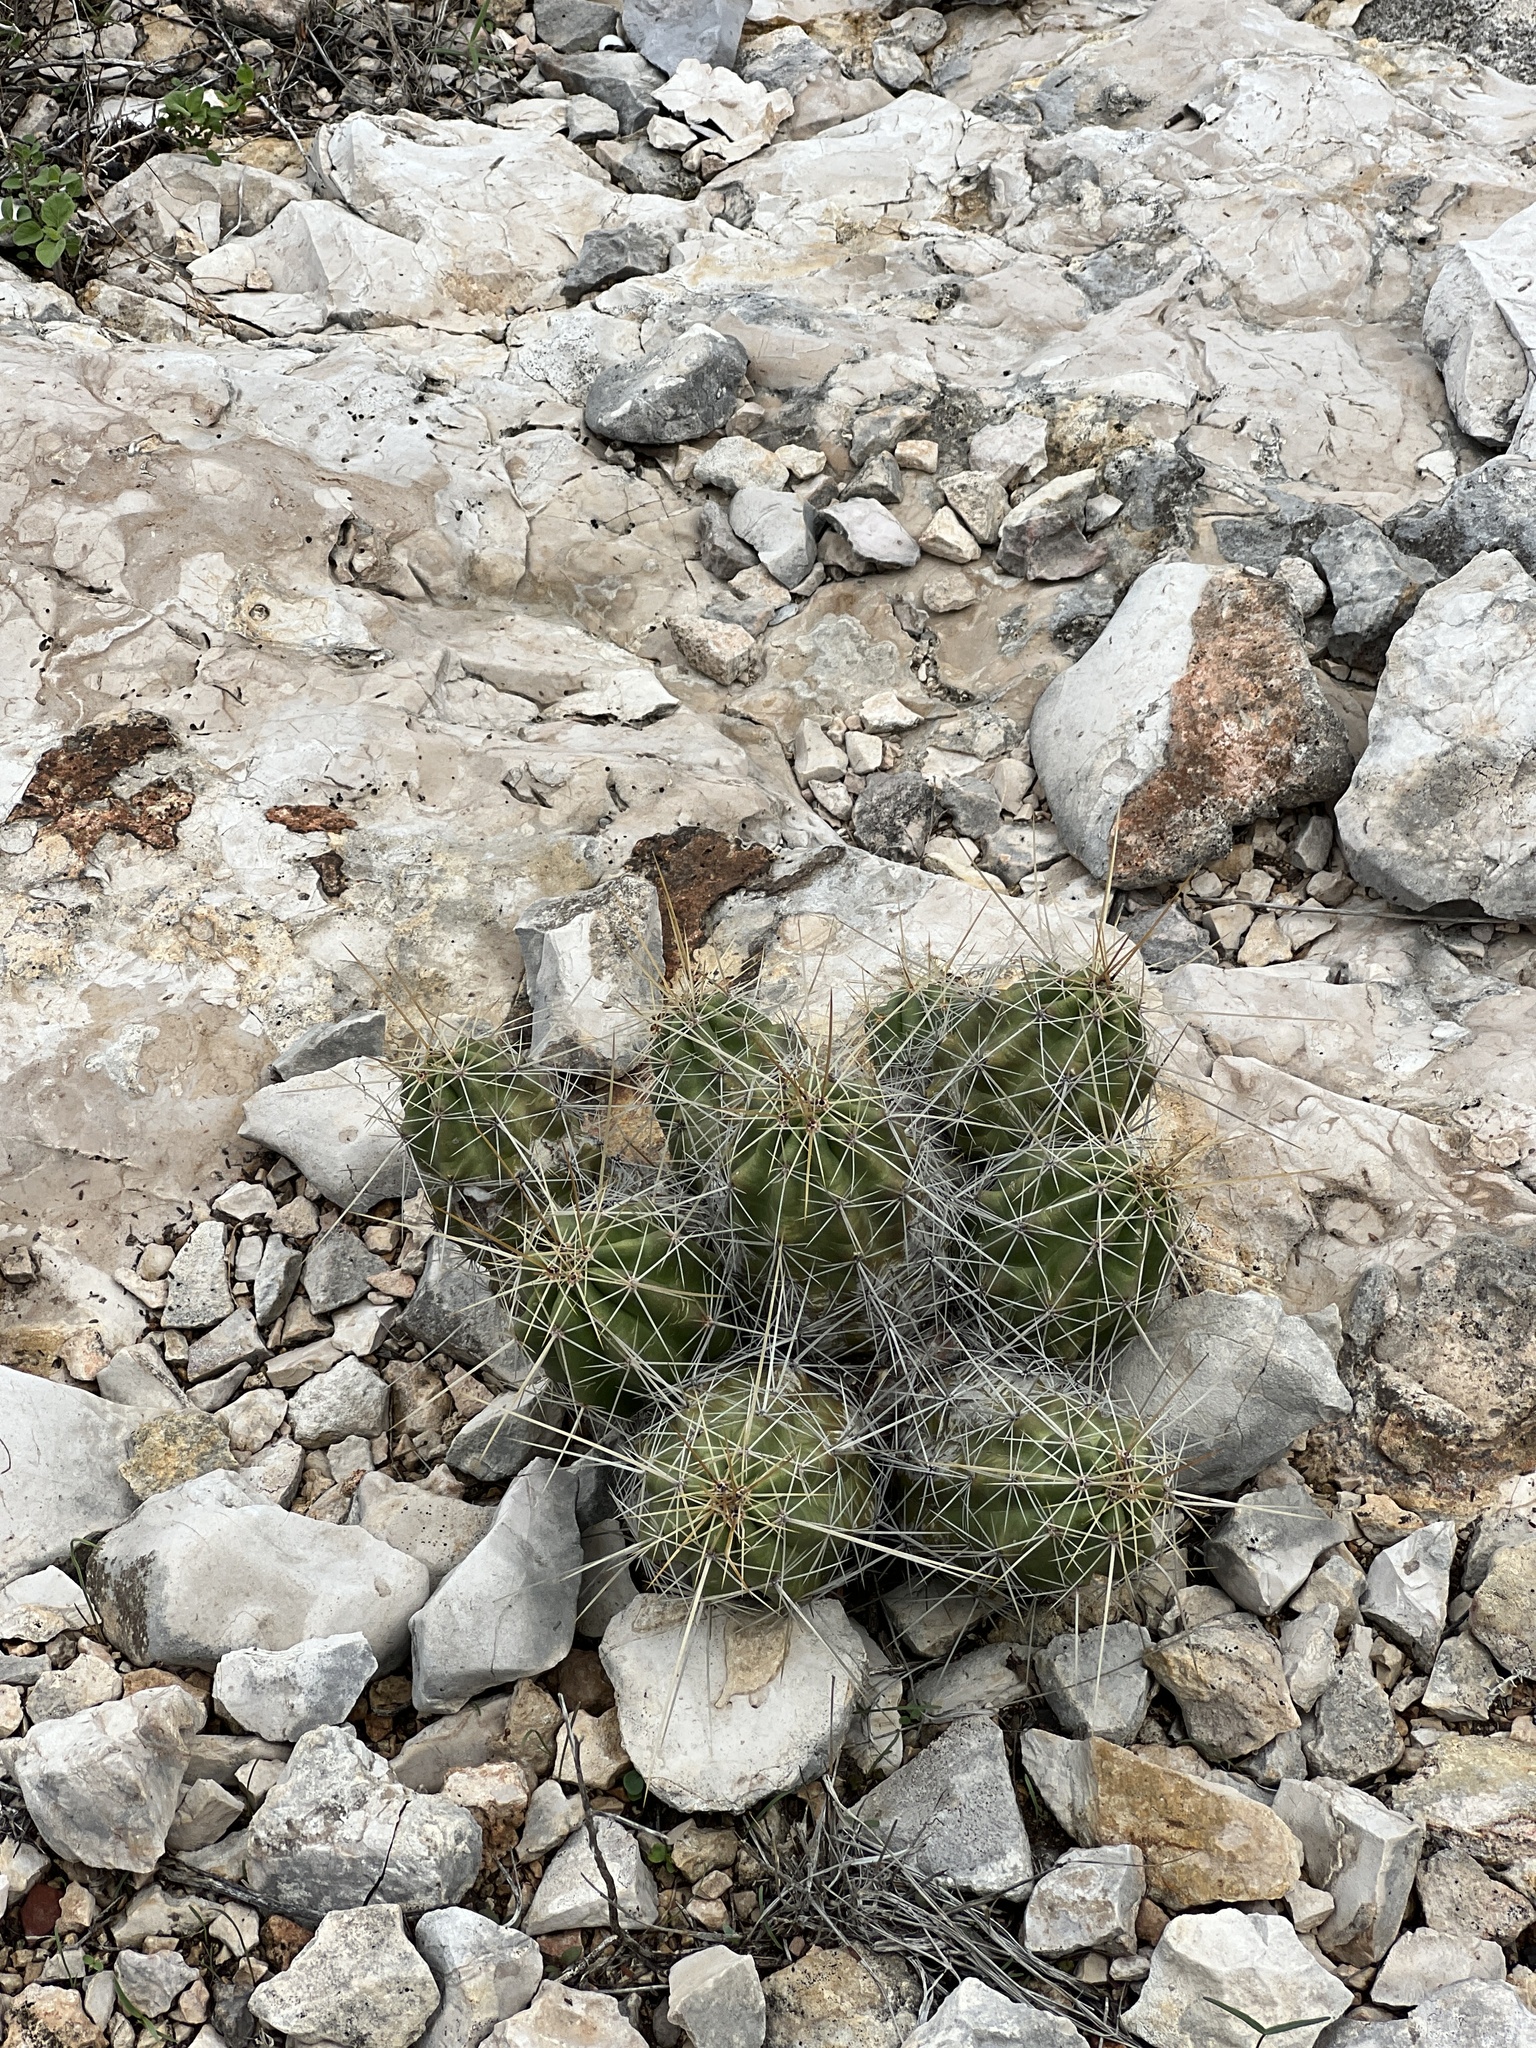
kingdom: Plantae
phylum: Tracheophyta
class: Magnoliopsida
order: Caryophyllales
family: Cactaceae
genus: Echinocereus
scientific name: Echinocereus enneacanthus
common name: Pitaya
